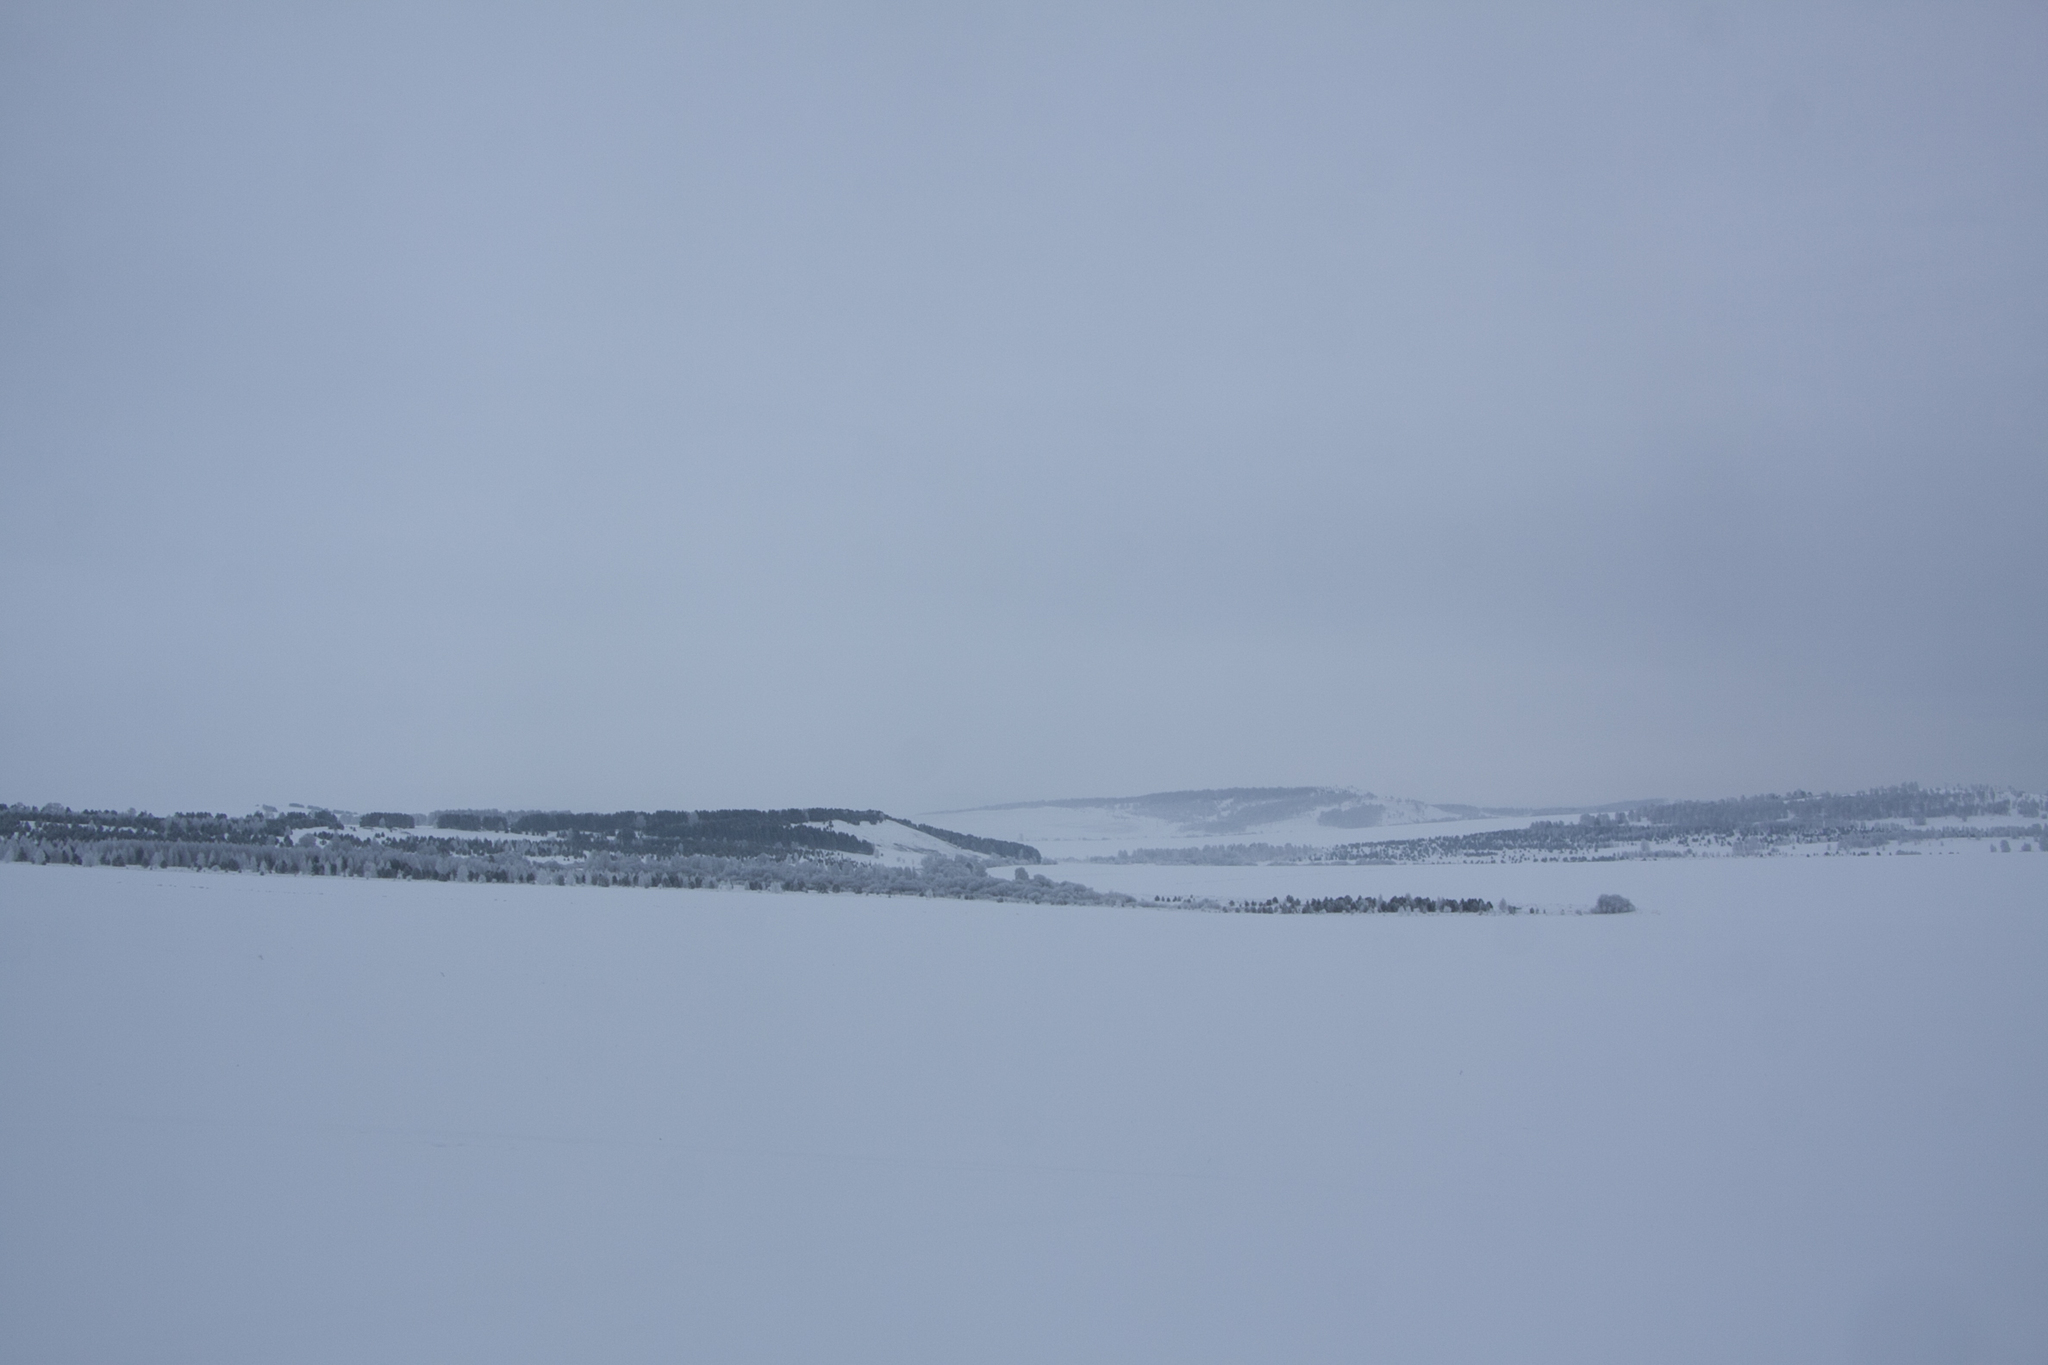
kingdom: Plantae
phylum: Tracheophyta
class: Pinopsida
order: Pinales
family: Pinaceae
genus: Pinus
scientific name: Pinus sylvestris
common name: Scots pine
